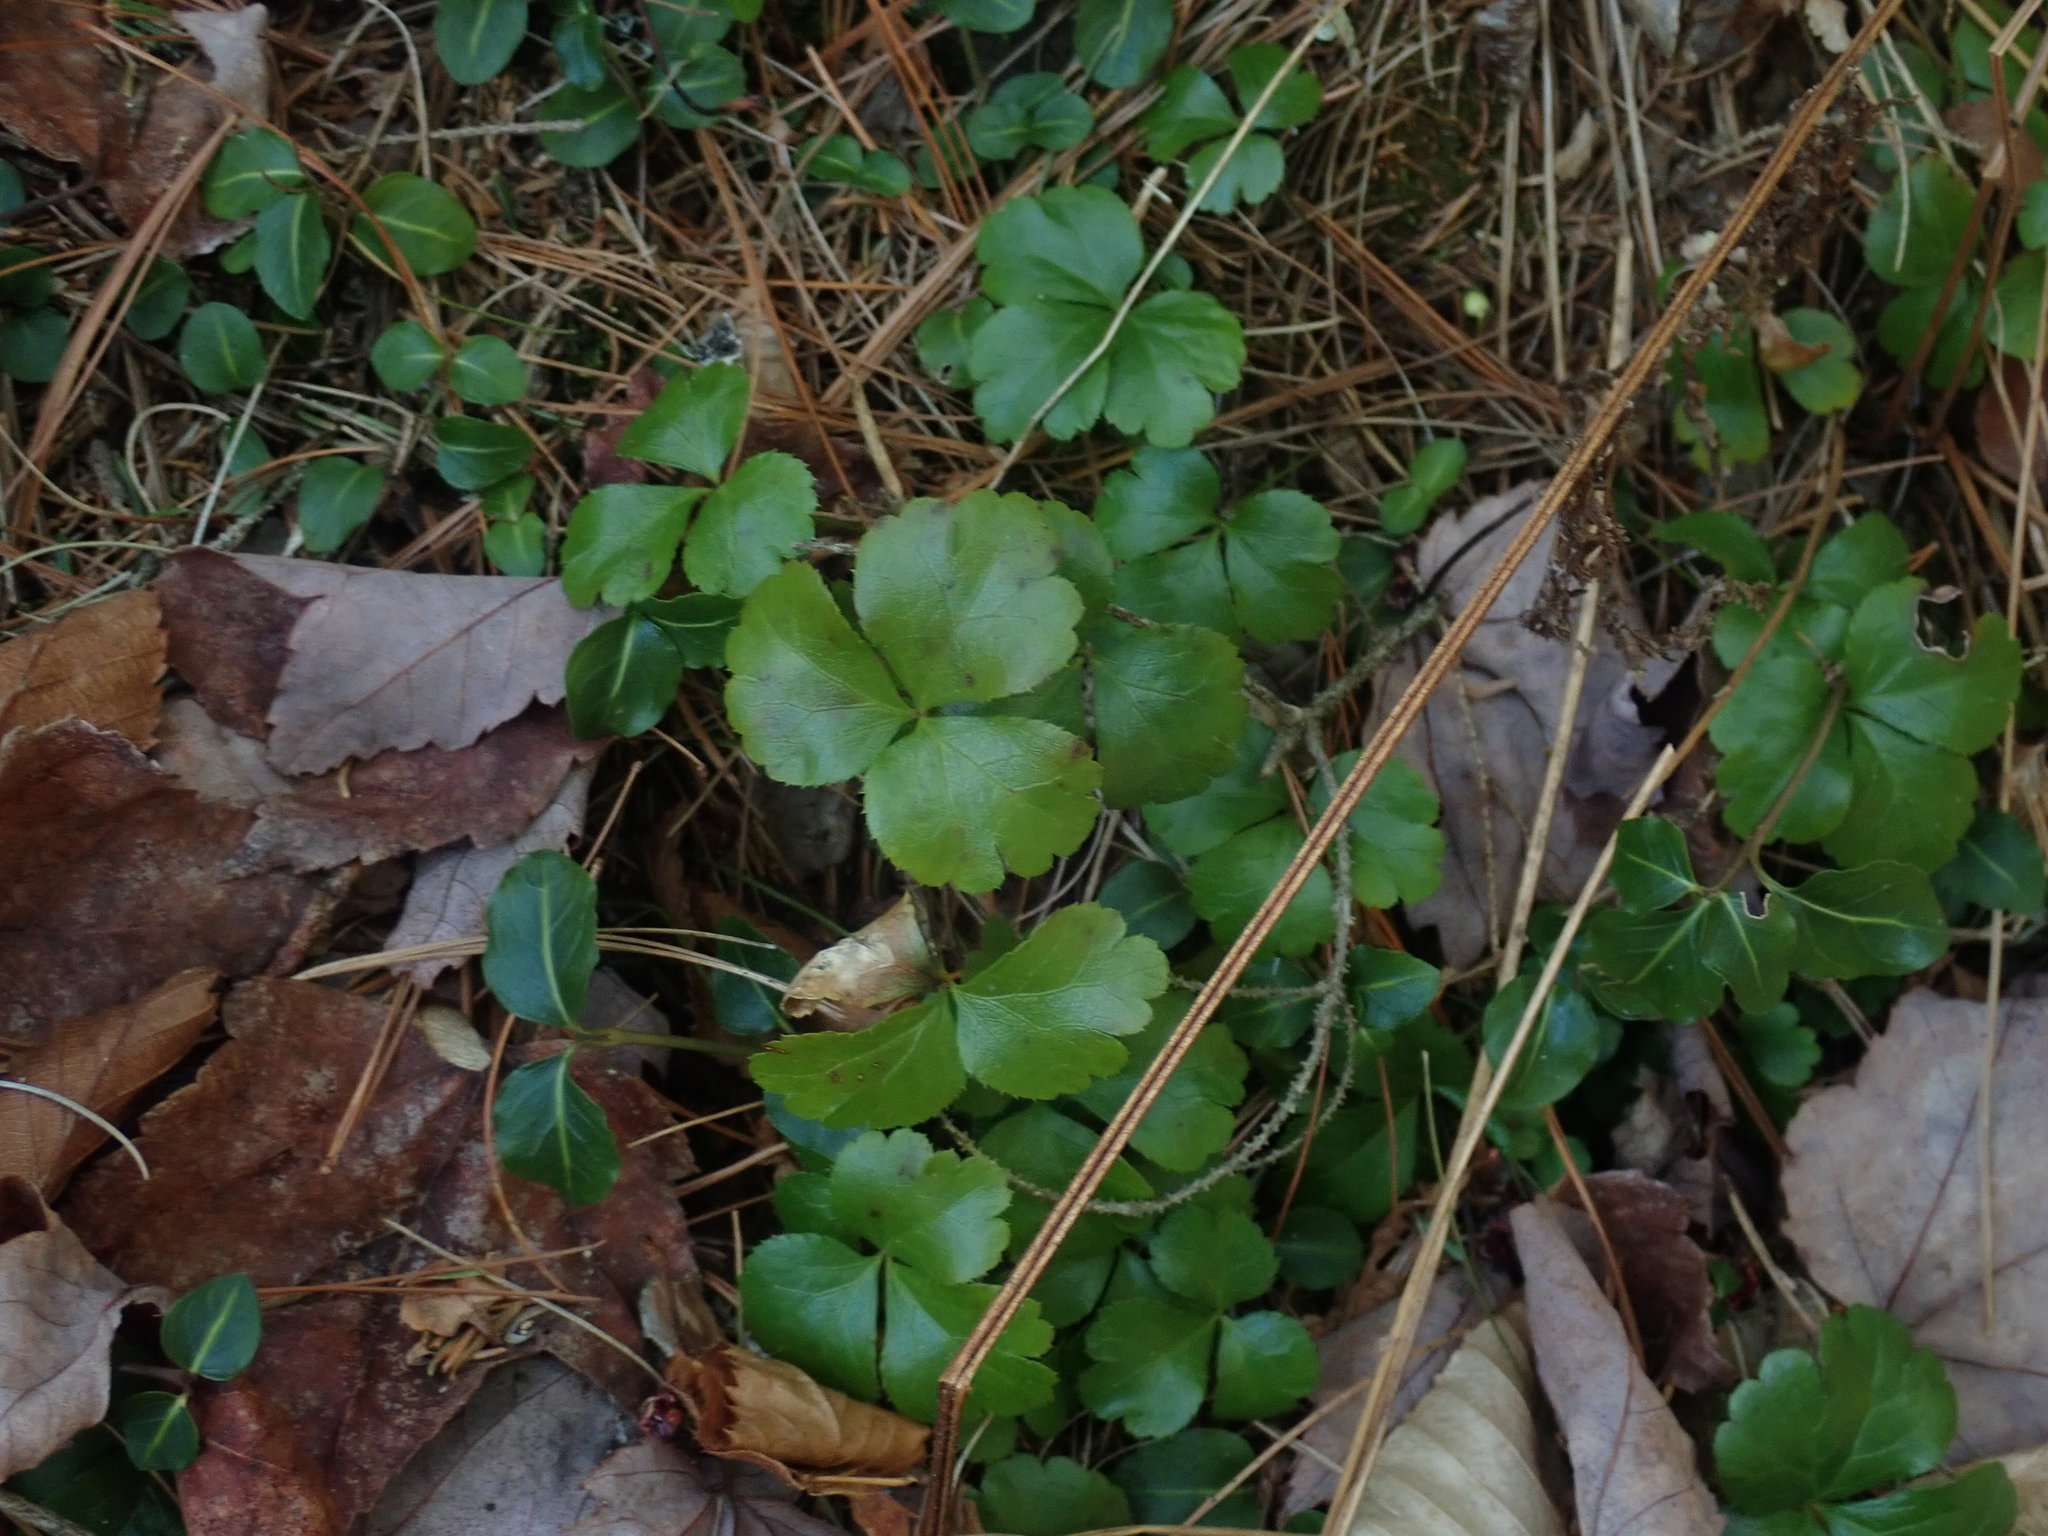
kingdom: Plantae
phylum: Tracheophyta
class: Magnoliopsida
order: Ranunculales
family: Ranunculaceae
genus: Coptis
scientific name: Coptis trifolia
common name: Canker-root
